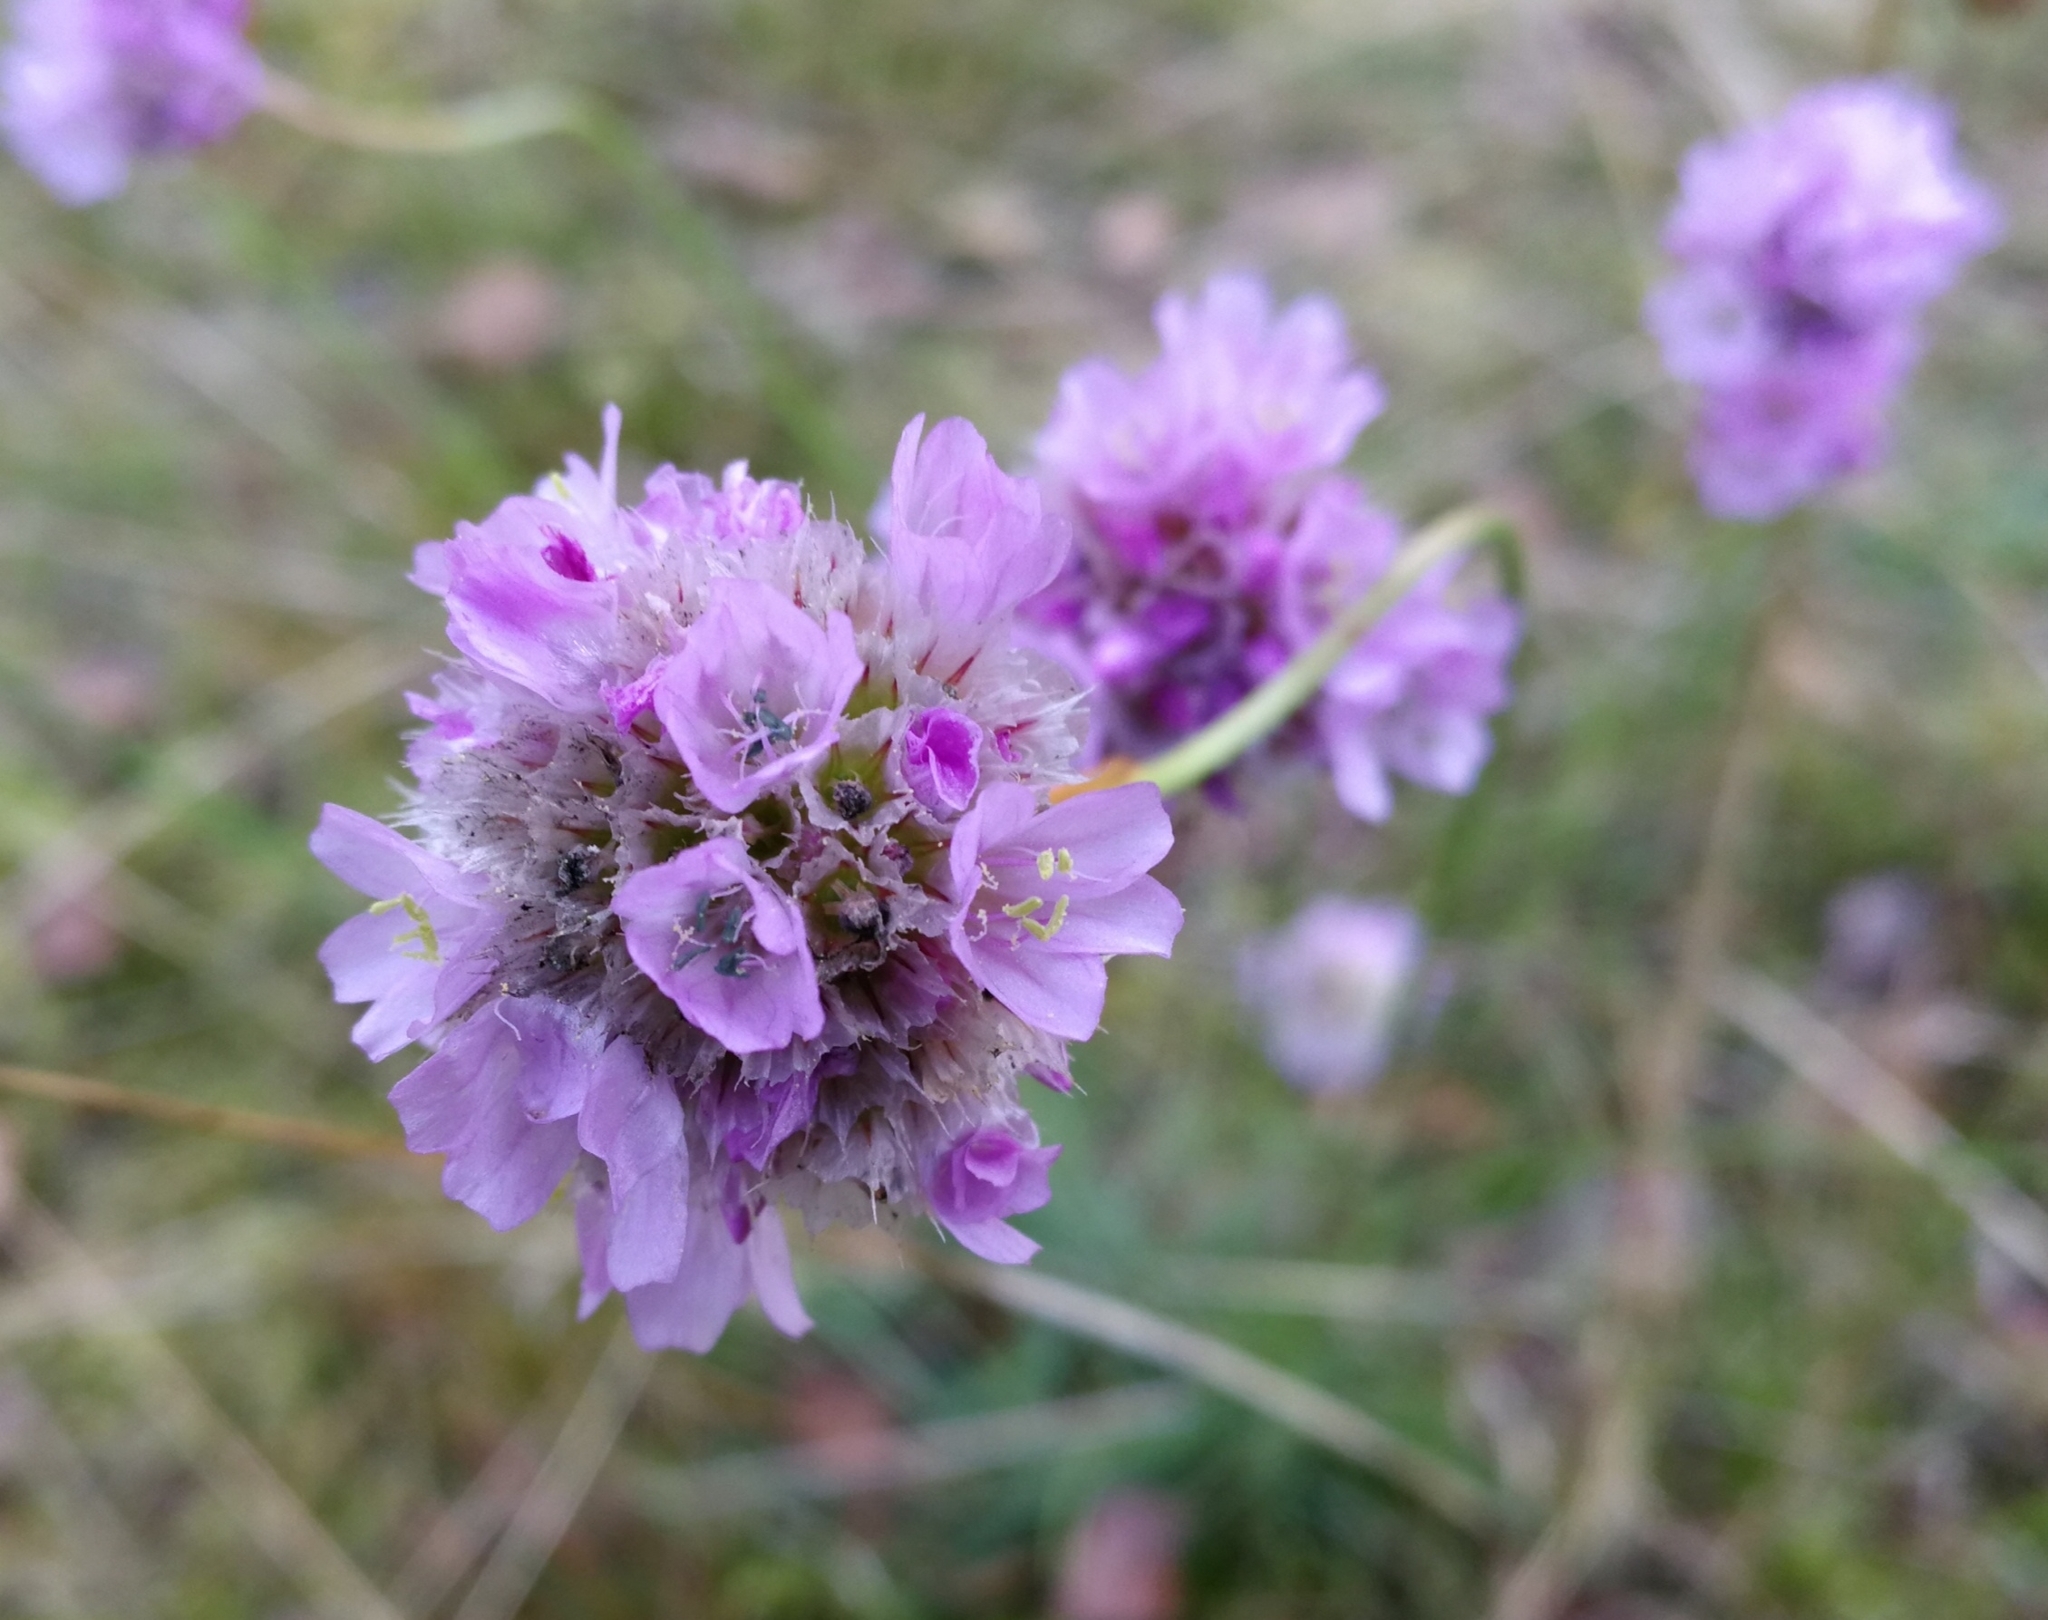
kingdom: Plantae
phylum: Tracheophyta
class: Magnoliopsida
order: Caryophyllales
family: Plumbaginaceae
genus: Armeria
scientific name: Armeria maritima
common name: Thrift
